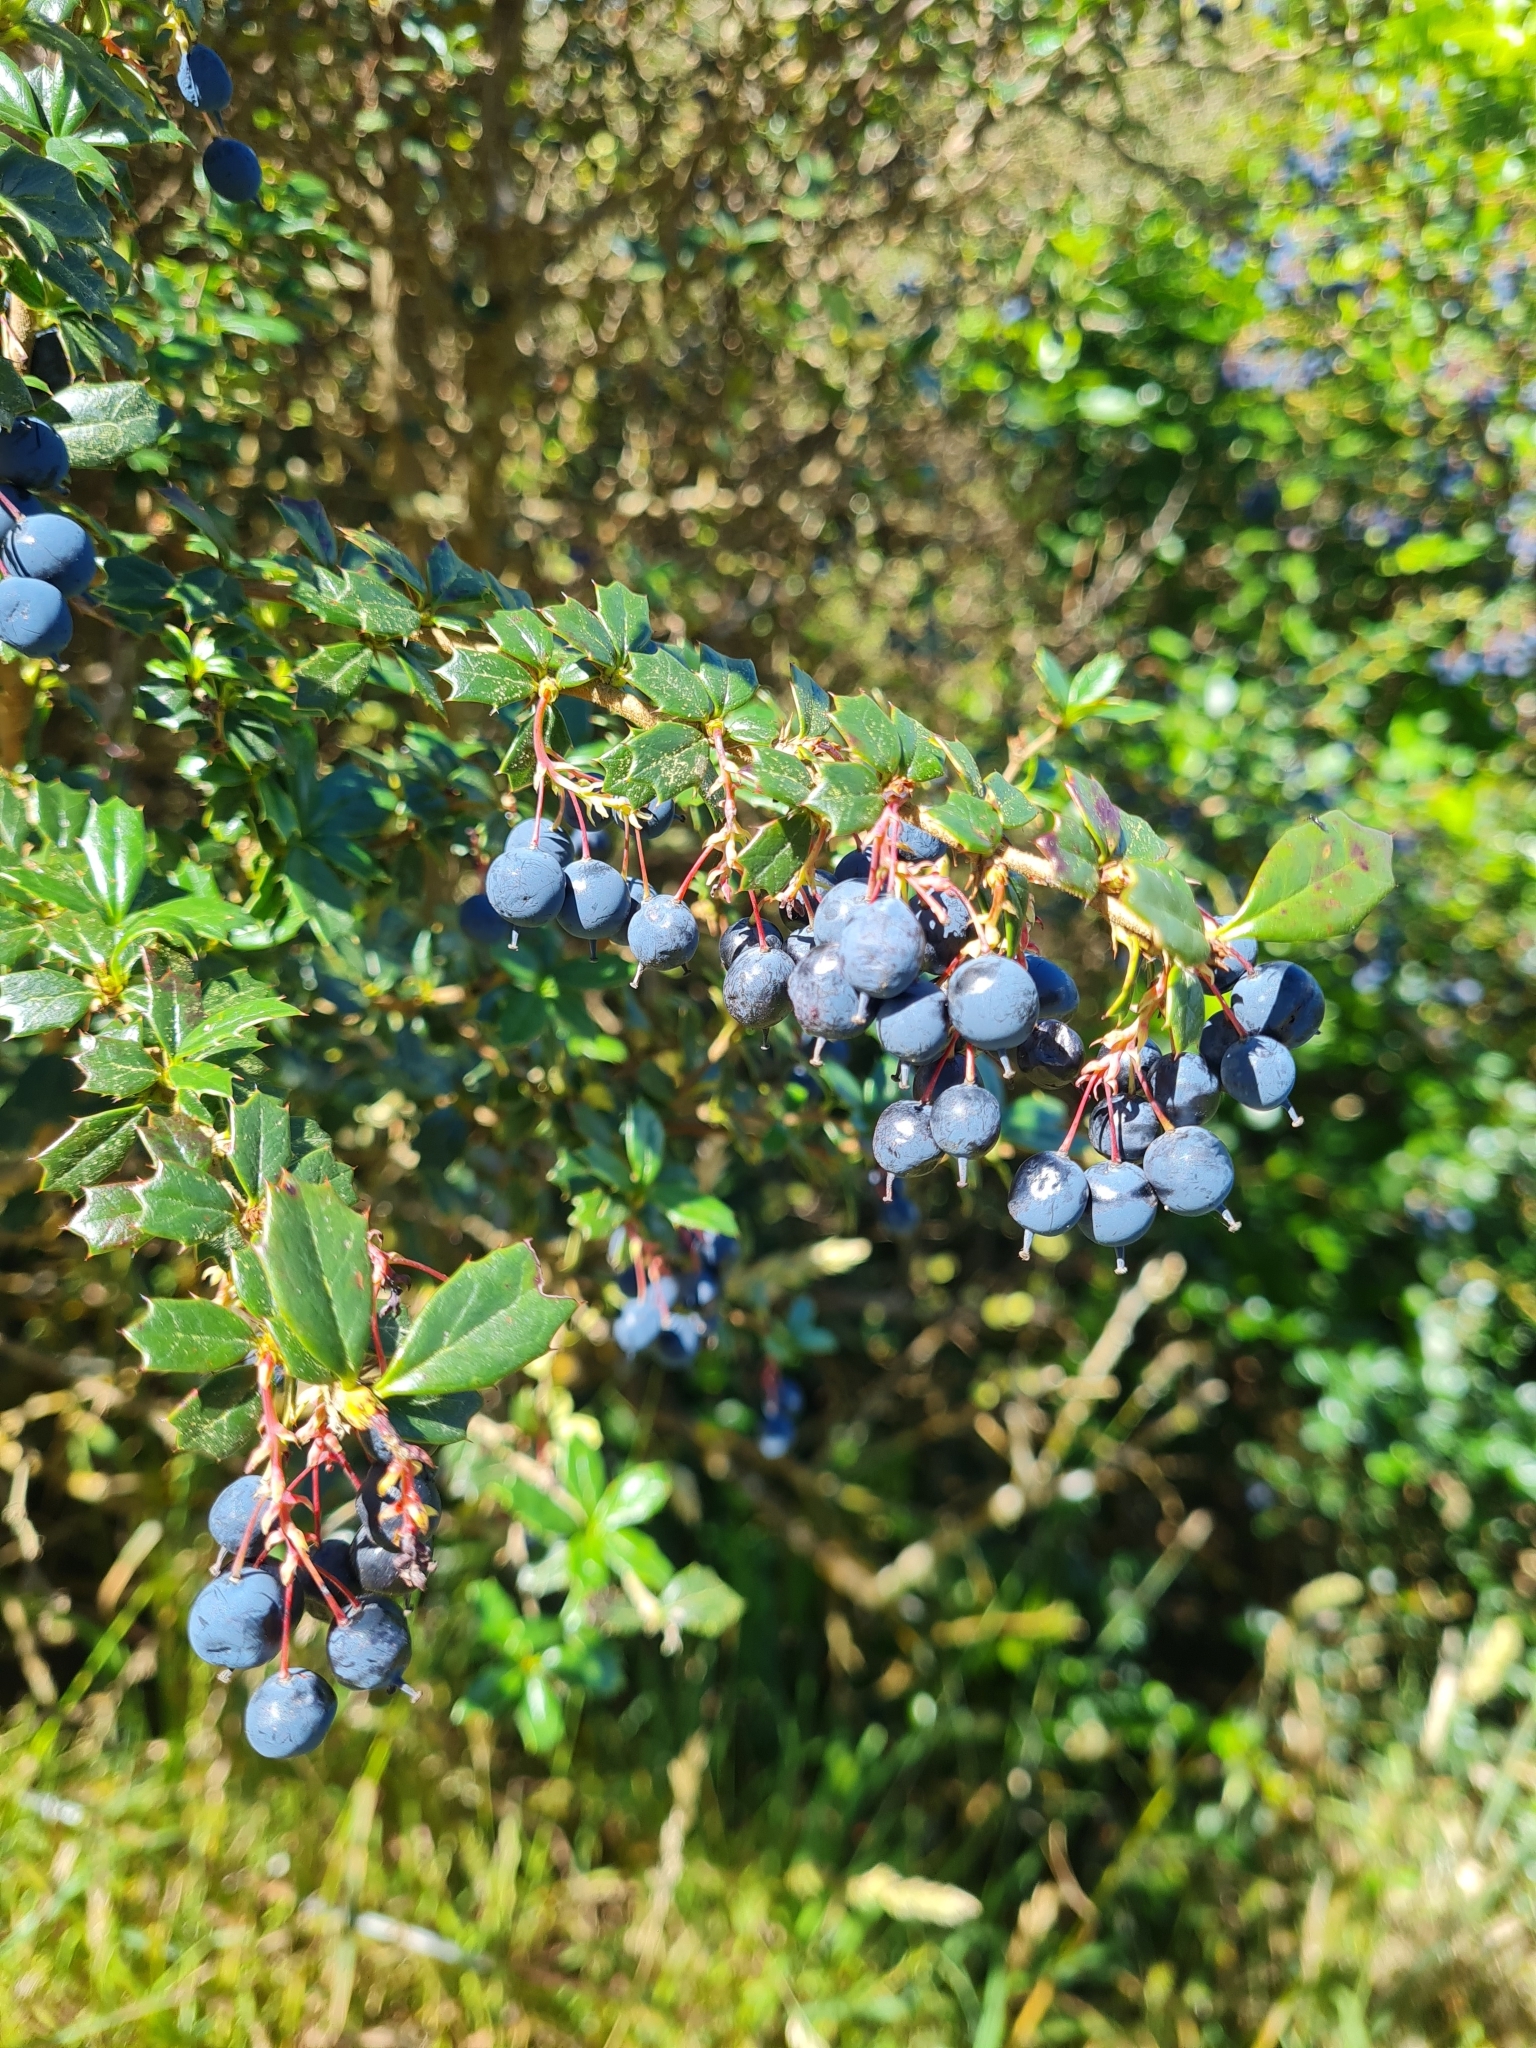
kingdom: Plantae
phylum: Tracheophyta
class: Magnoliopsida
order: Ranunculales
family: Berberidaceae
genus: Berberis
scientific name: Berberis darwinii
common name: Darwin's barberry
